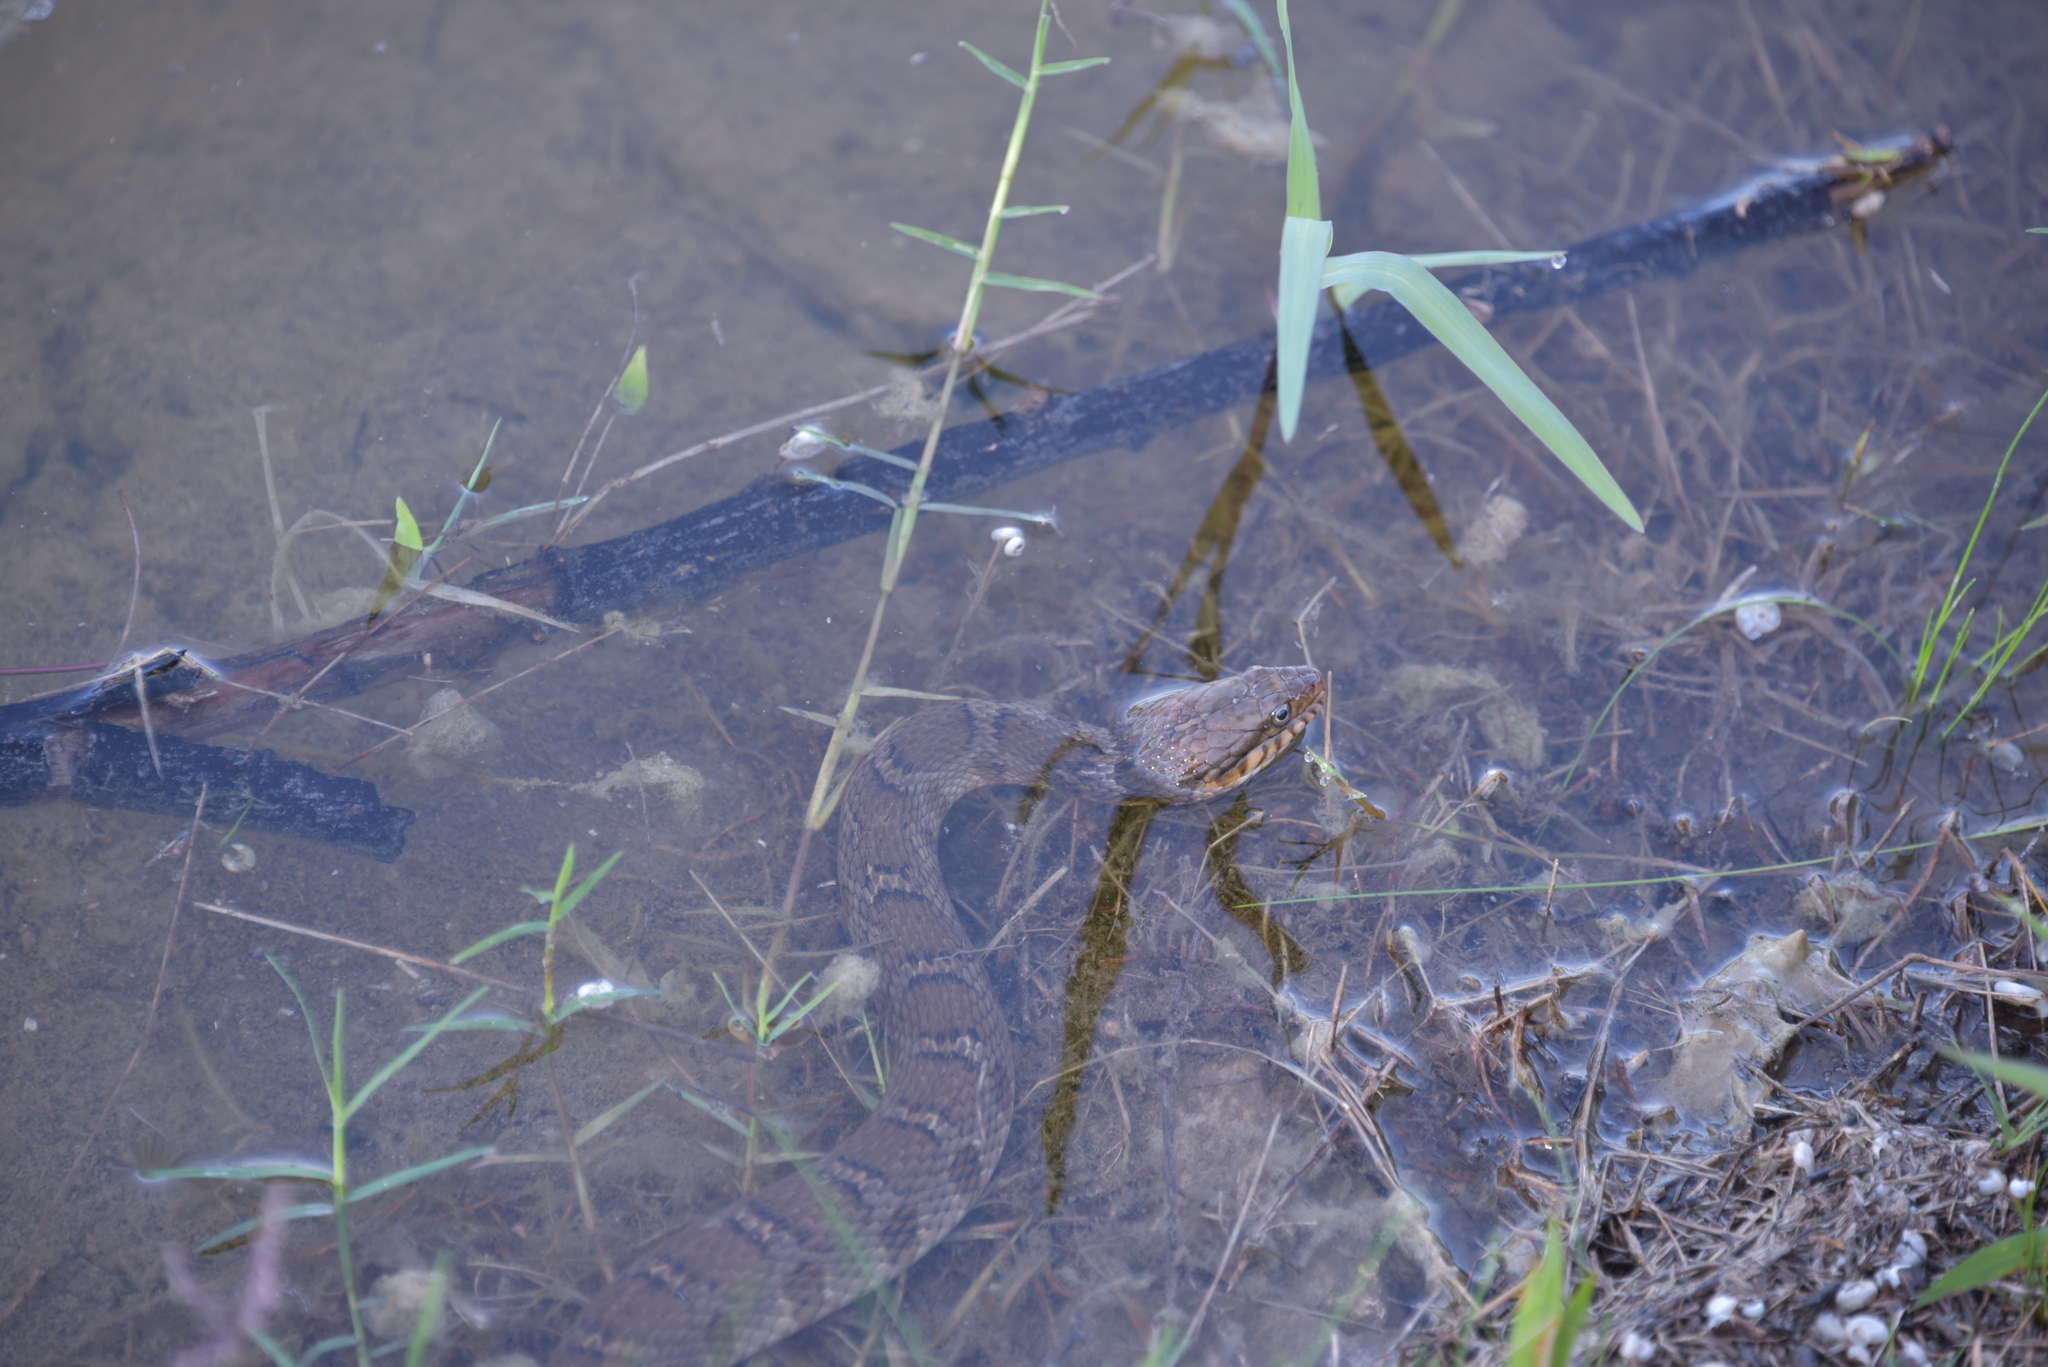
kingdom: Animalia
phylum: Chordata
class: Squamata
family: Colubridae
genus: Nerodia
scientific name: Nerodia erythrogaster
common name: Plainbelly water snake
